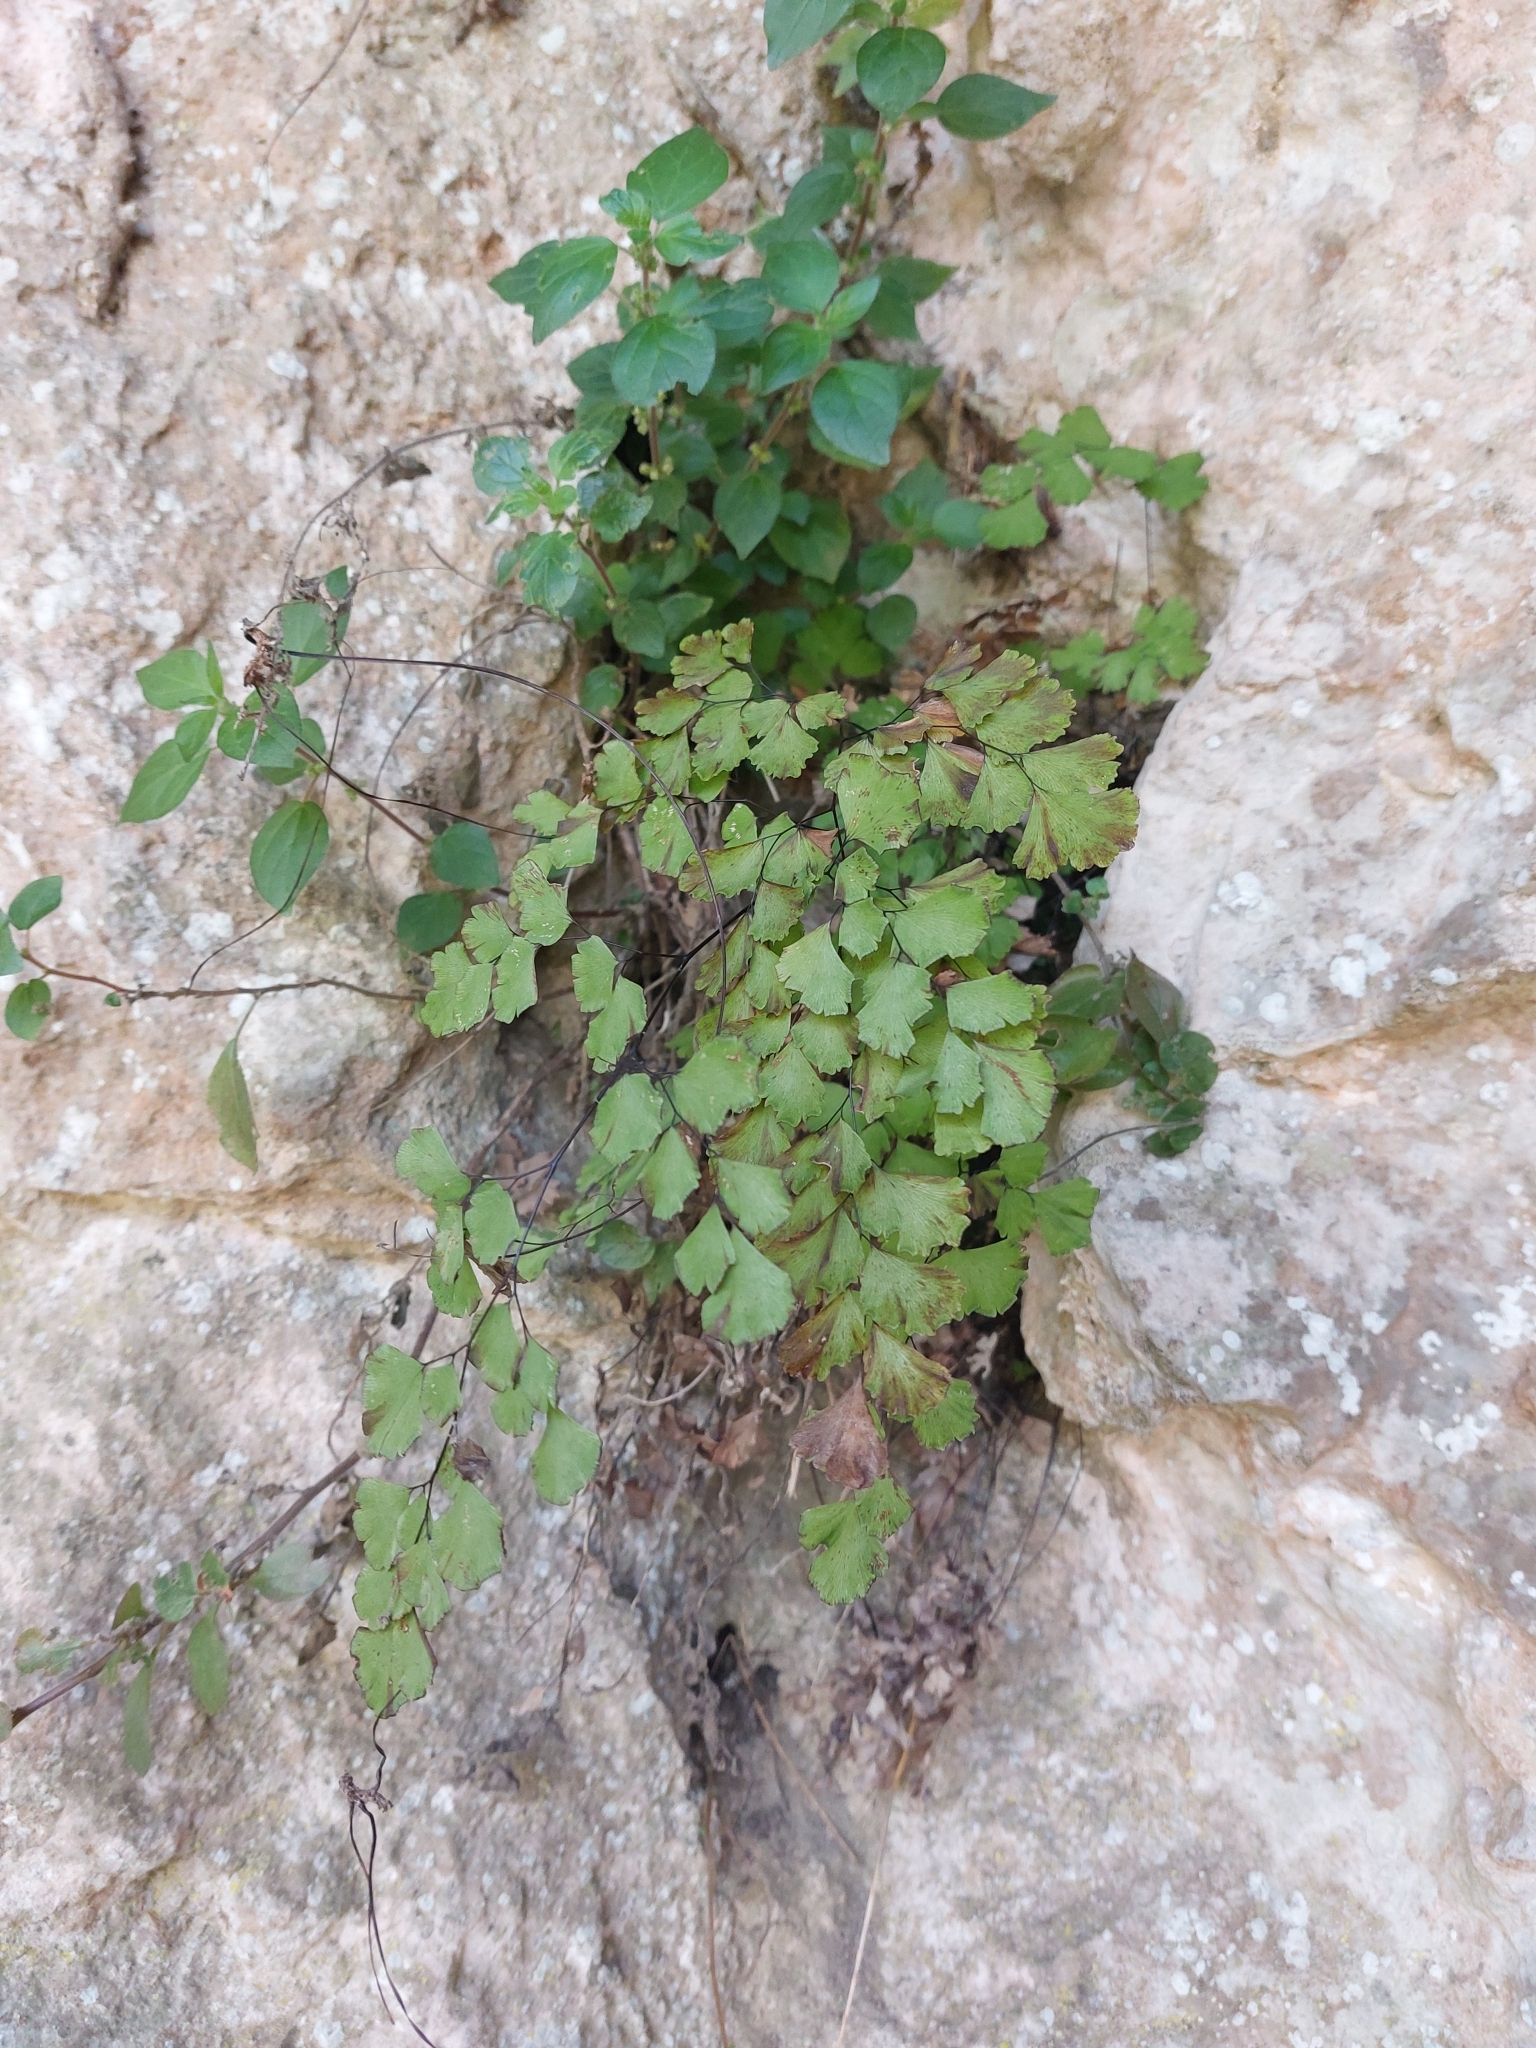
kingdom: Plantae
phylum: Tracheophyta
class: Polypodiopsida
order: Polypodiales
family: Pteridaceae
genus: Adiantum
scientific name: Adiantum capillus-veneris
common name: Maidenhair fern
